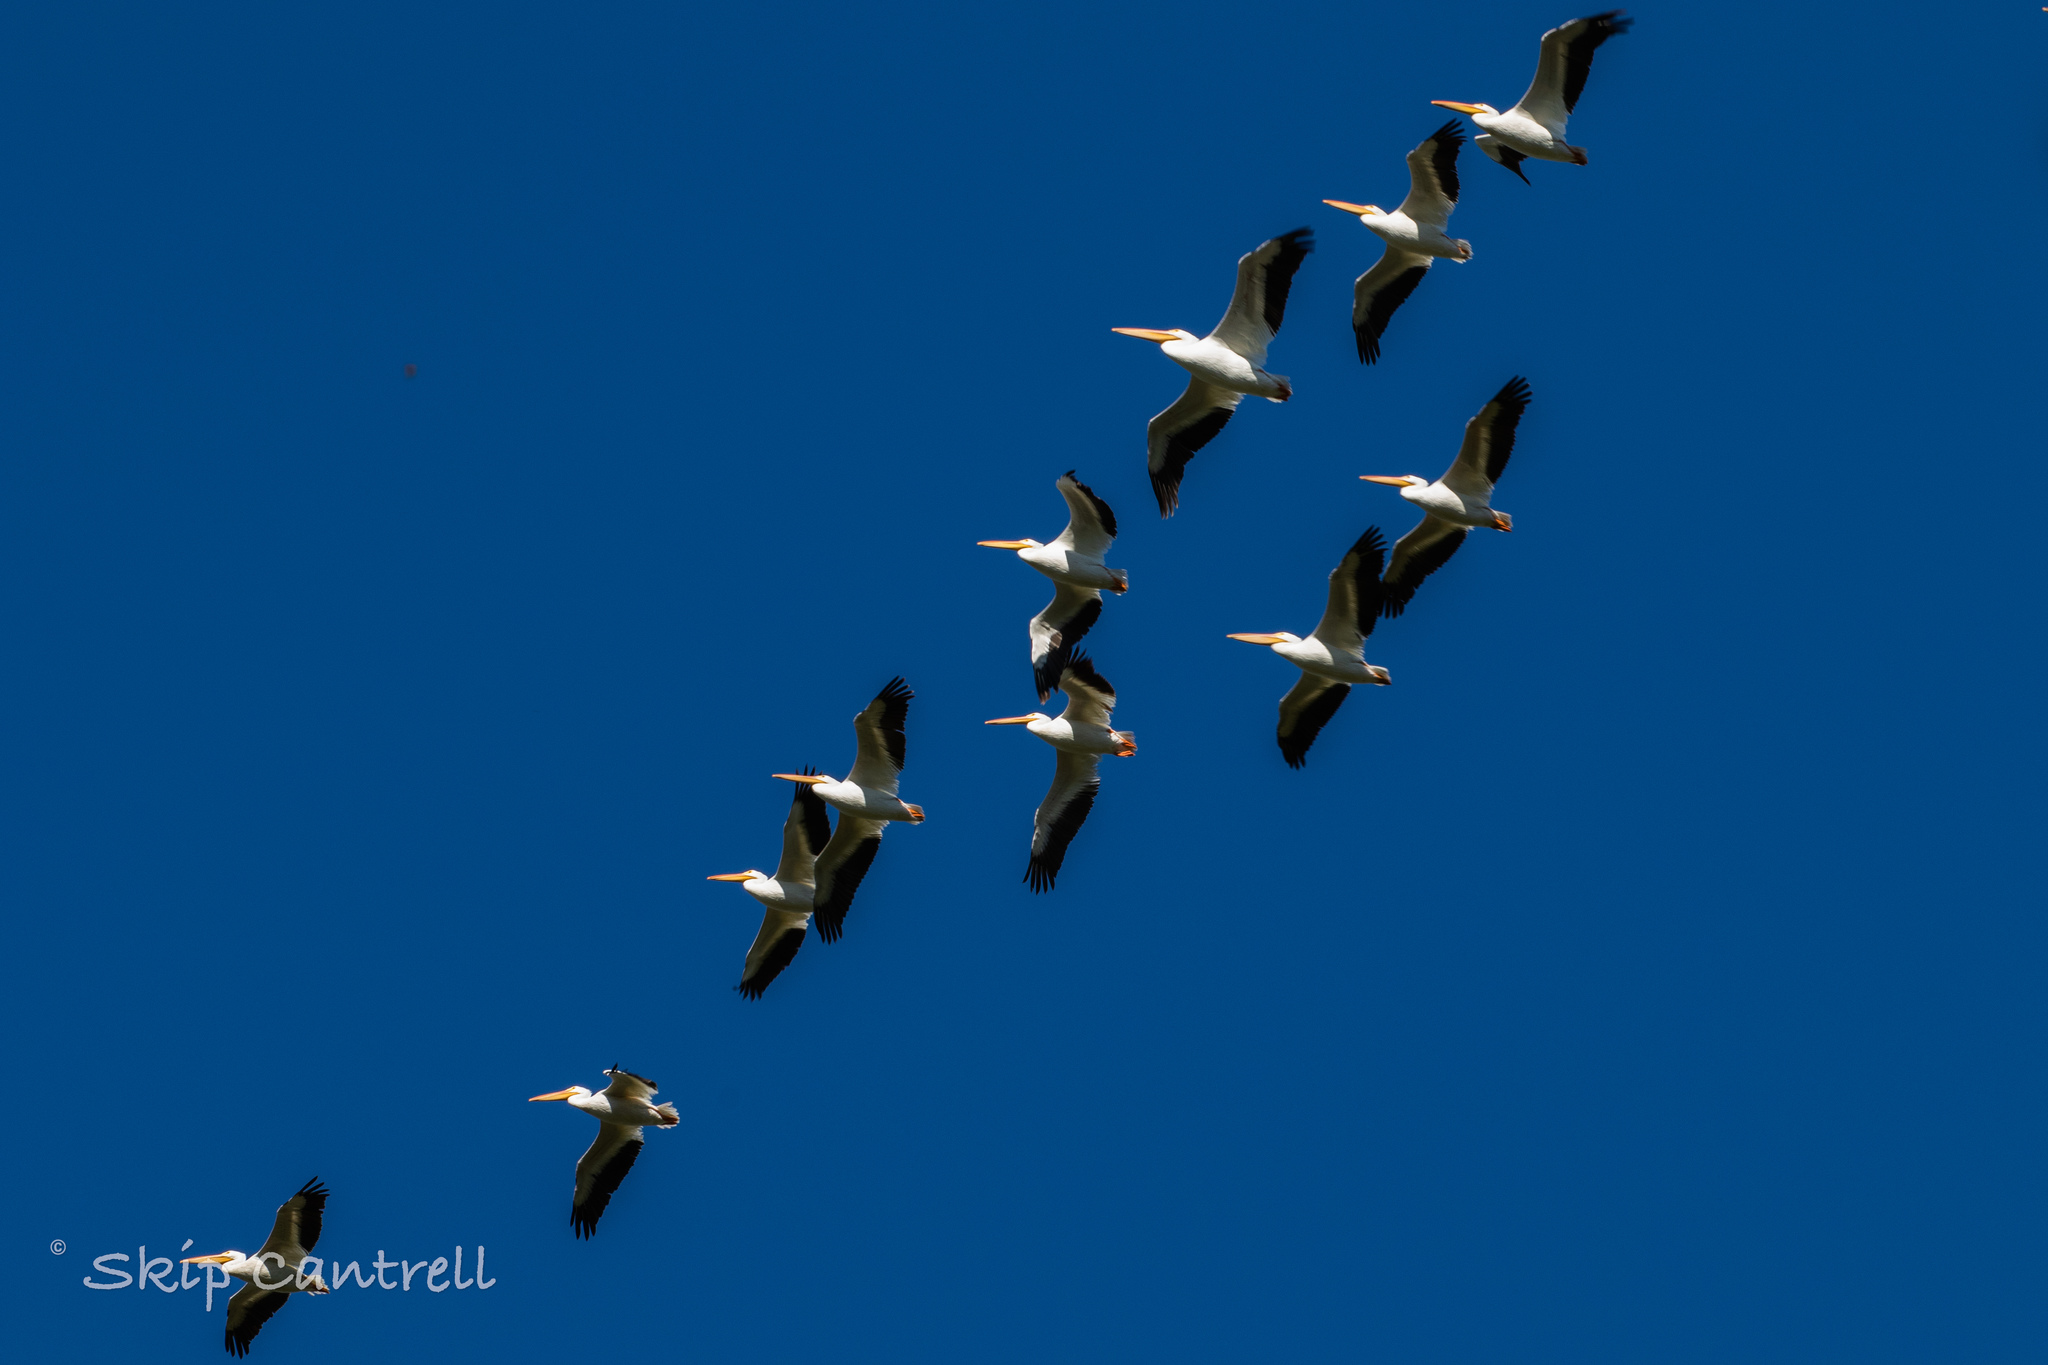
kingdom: Animalia
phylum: Chordata
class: Aves
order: Pelecaniformes
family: Pelecanidae
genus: Pelecanus
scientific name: Pelecanus erythrorhynchos
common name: American white pelican
